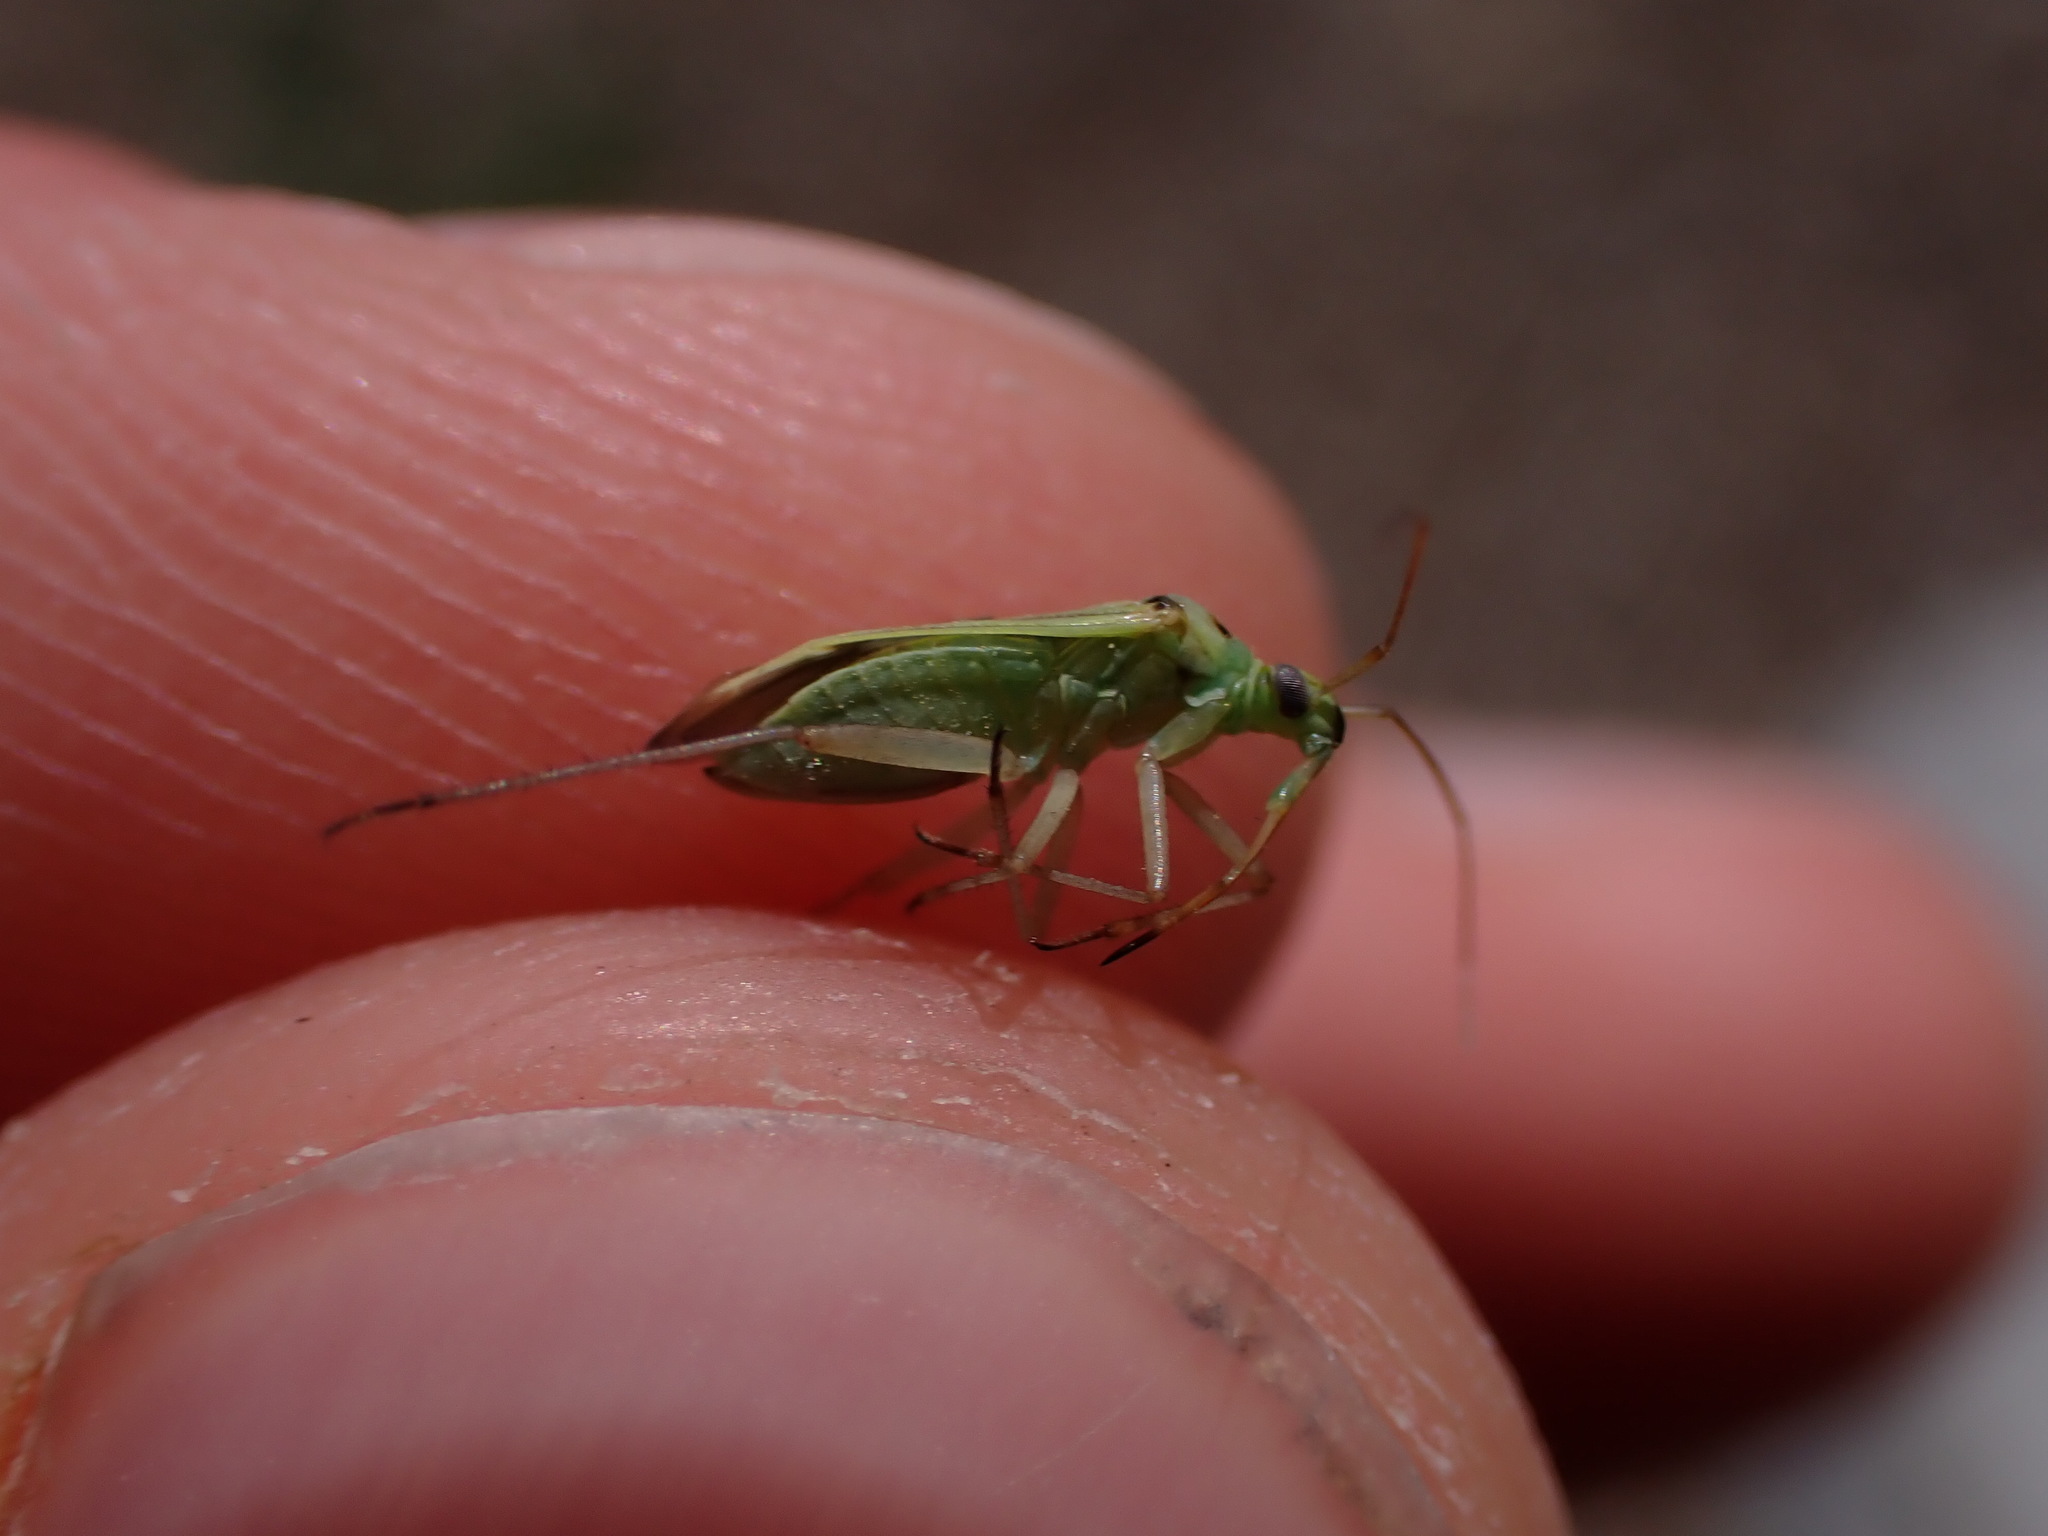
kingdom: Animalia
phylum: Arthropoda
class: Insecta
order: Hemiptera
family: Miridae
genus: Stenotus
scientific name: Stenotus binotatus
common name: Plant bug
